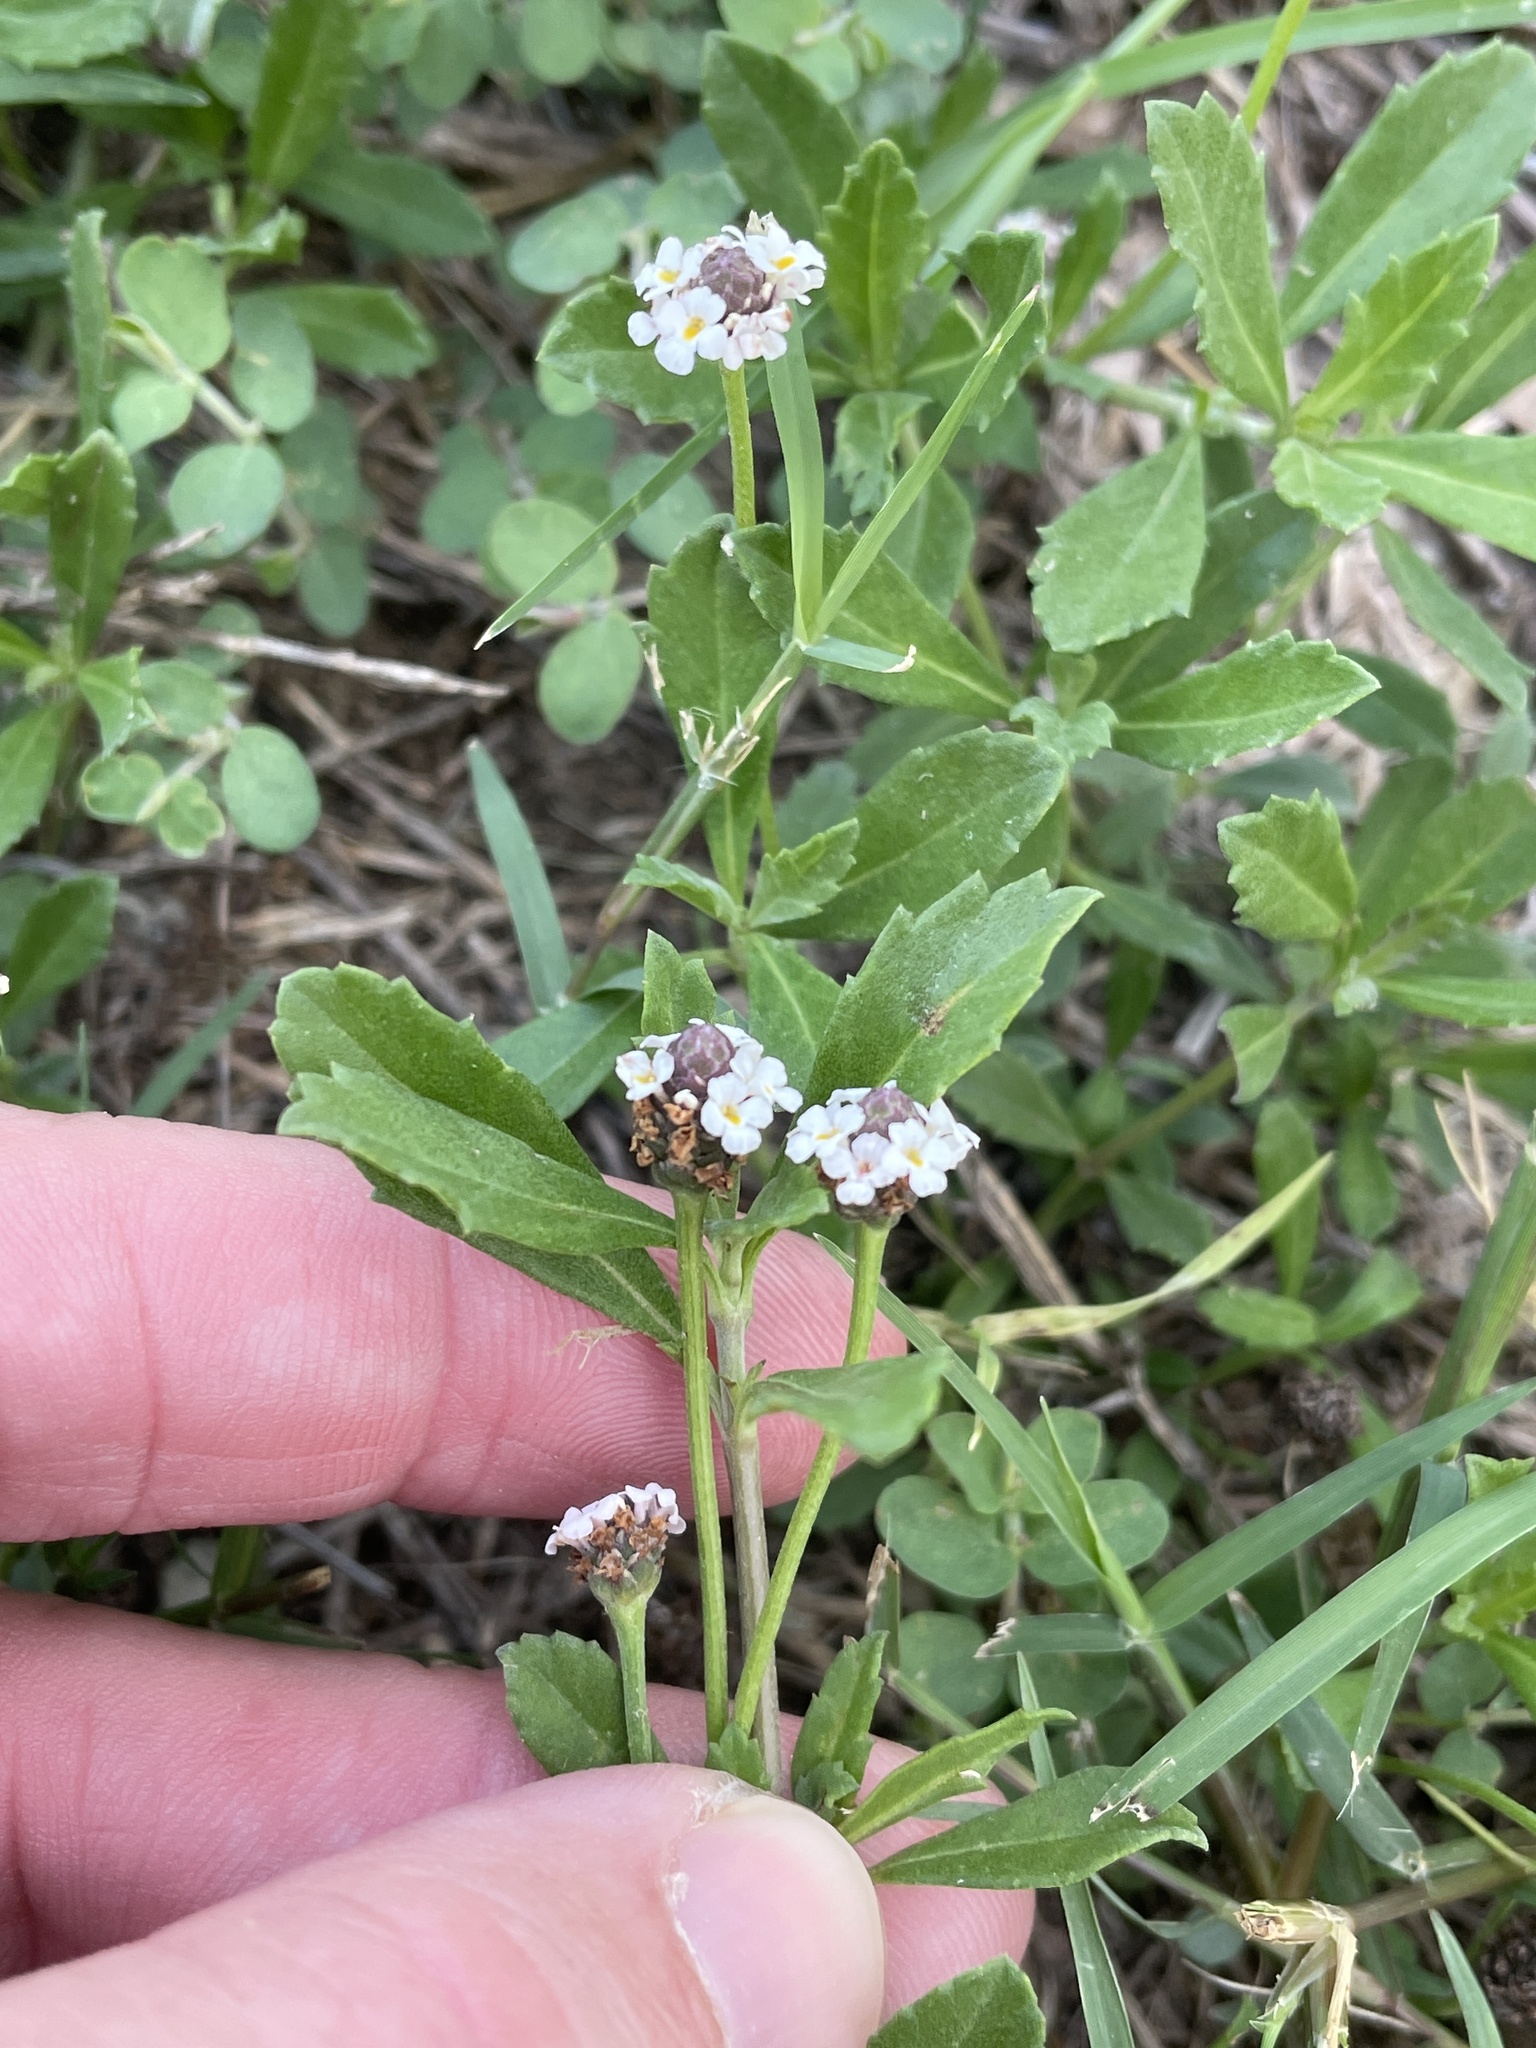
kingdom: Plantae
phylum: Tracheophyta
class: Magnoliopsida
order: Lamiales
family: Verbenaceae
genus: Phyla
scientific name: Phyla nodiflora
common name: Frogfruit
